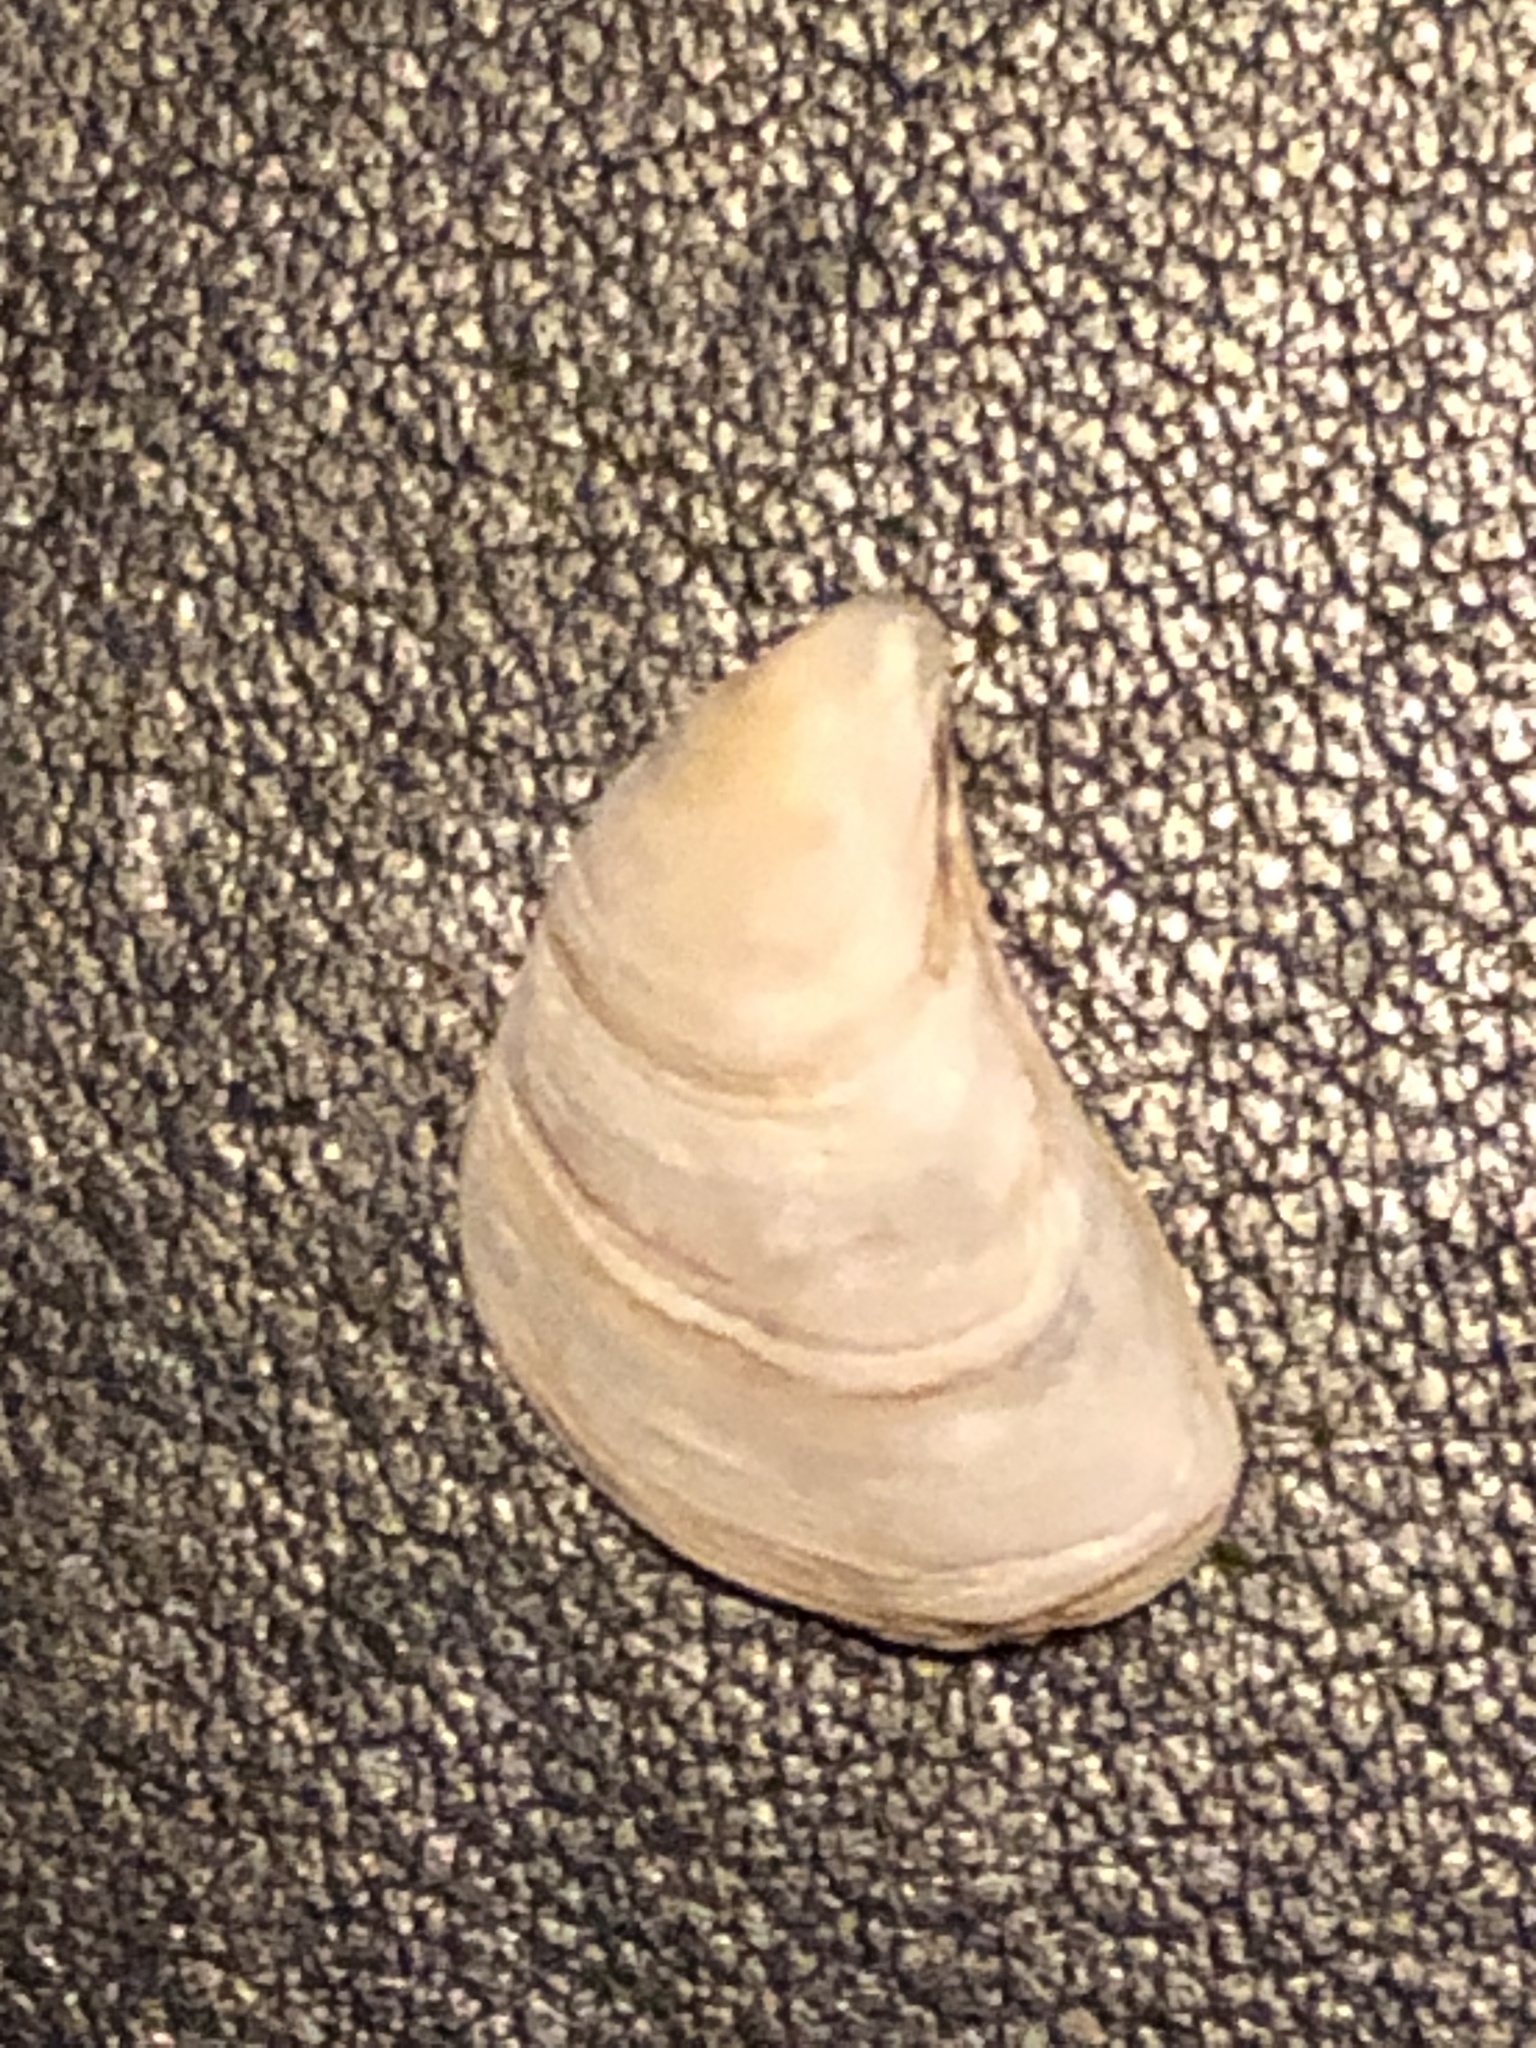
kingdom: Animalia
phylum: Mollusca
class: Bivalvia
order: Myida
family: Dreissenidae
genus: Dreissena
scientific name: Dreissena bugensis
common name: Quagga mussel
